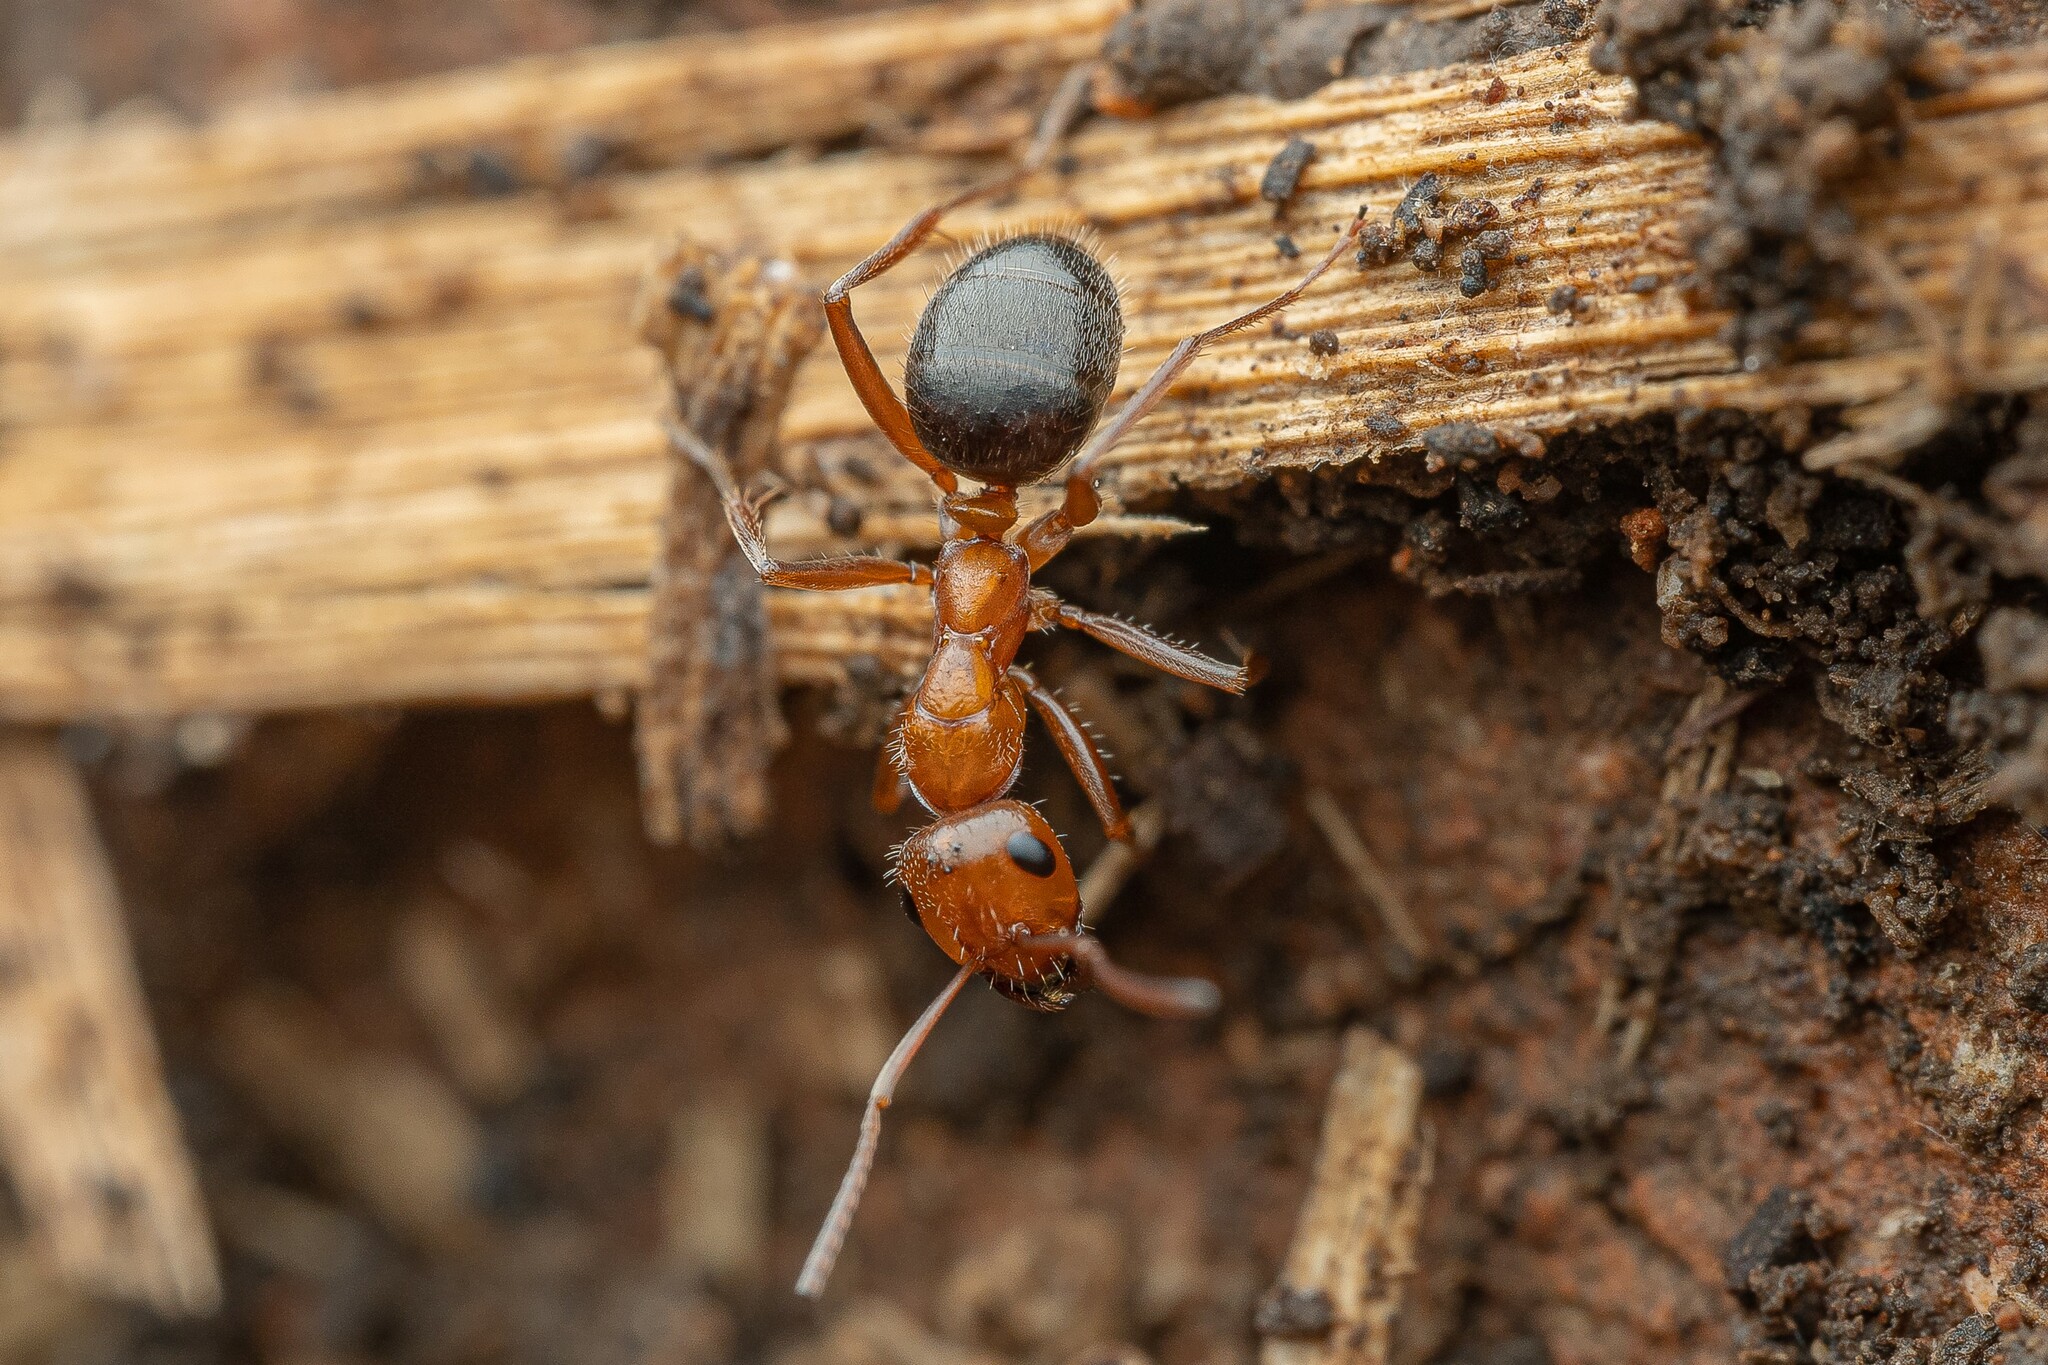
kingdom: Animalia
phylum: Arthropoda
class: Insecta
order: Hymenoptera
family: Formicidae
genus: Formica
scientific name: Formica perpilosa
